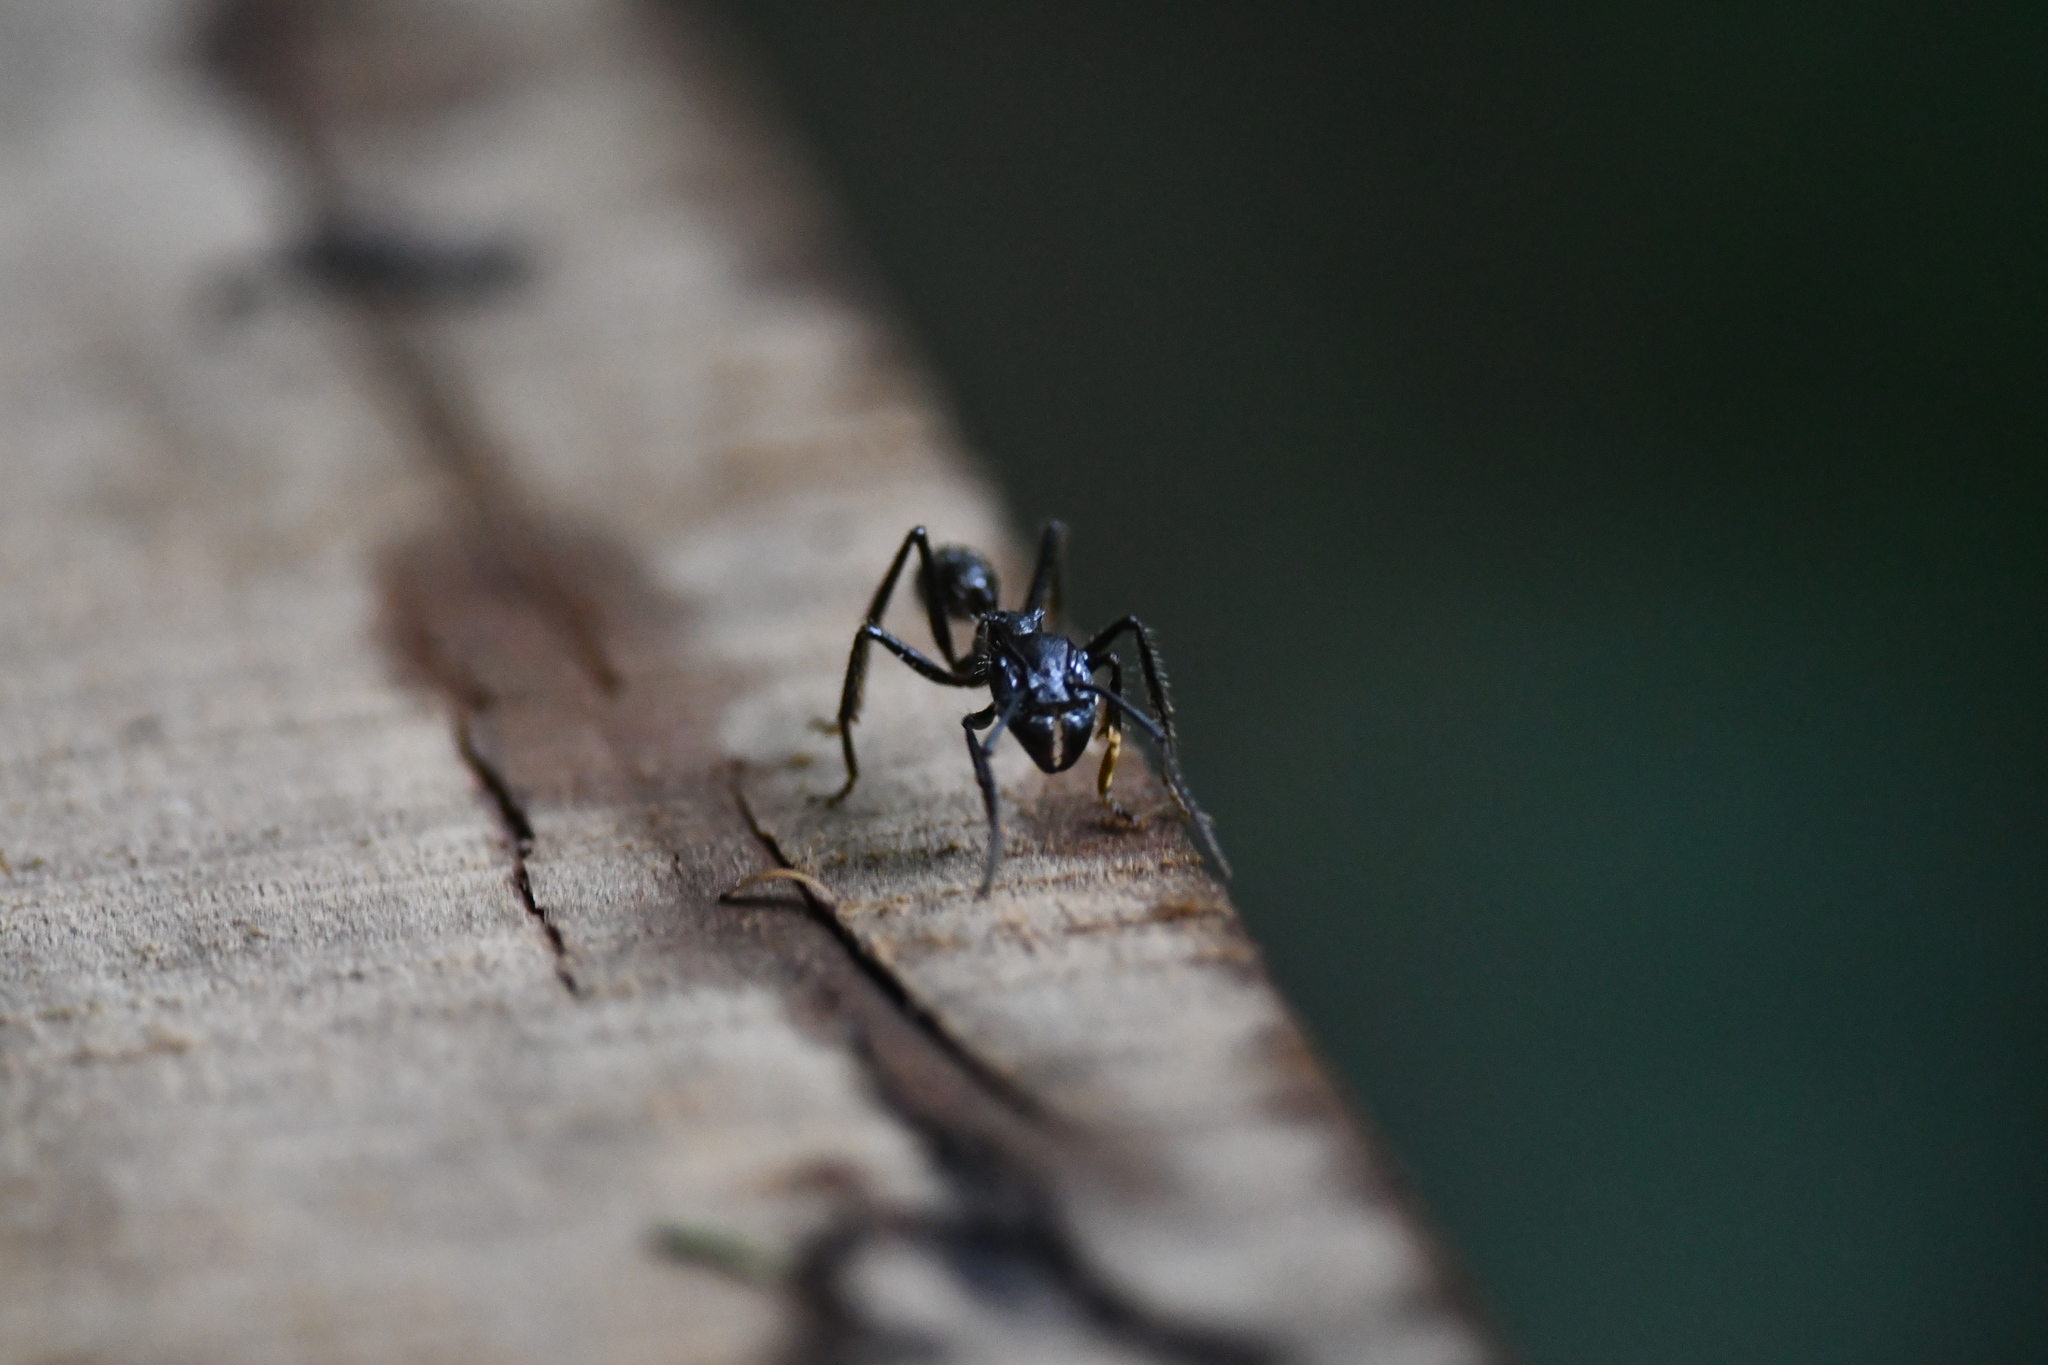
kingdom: Animalia
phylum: Arthropoda
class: Insecta
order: Hymenoptera
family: Formicidae
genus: Paraponera
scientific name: Paraponera clavata
